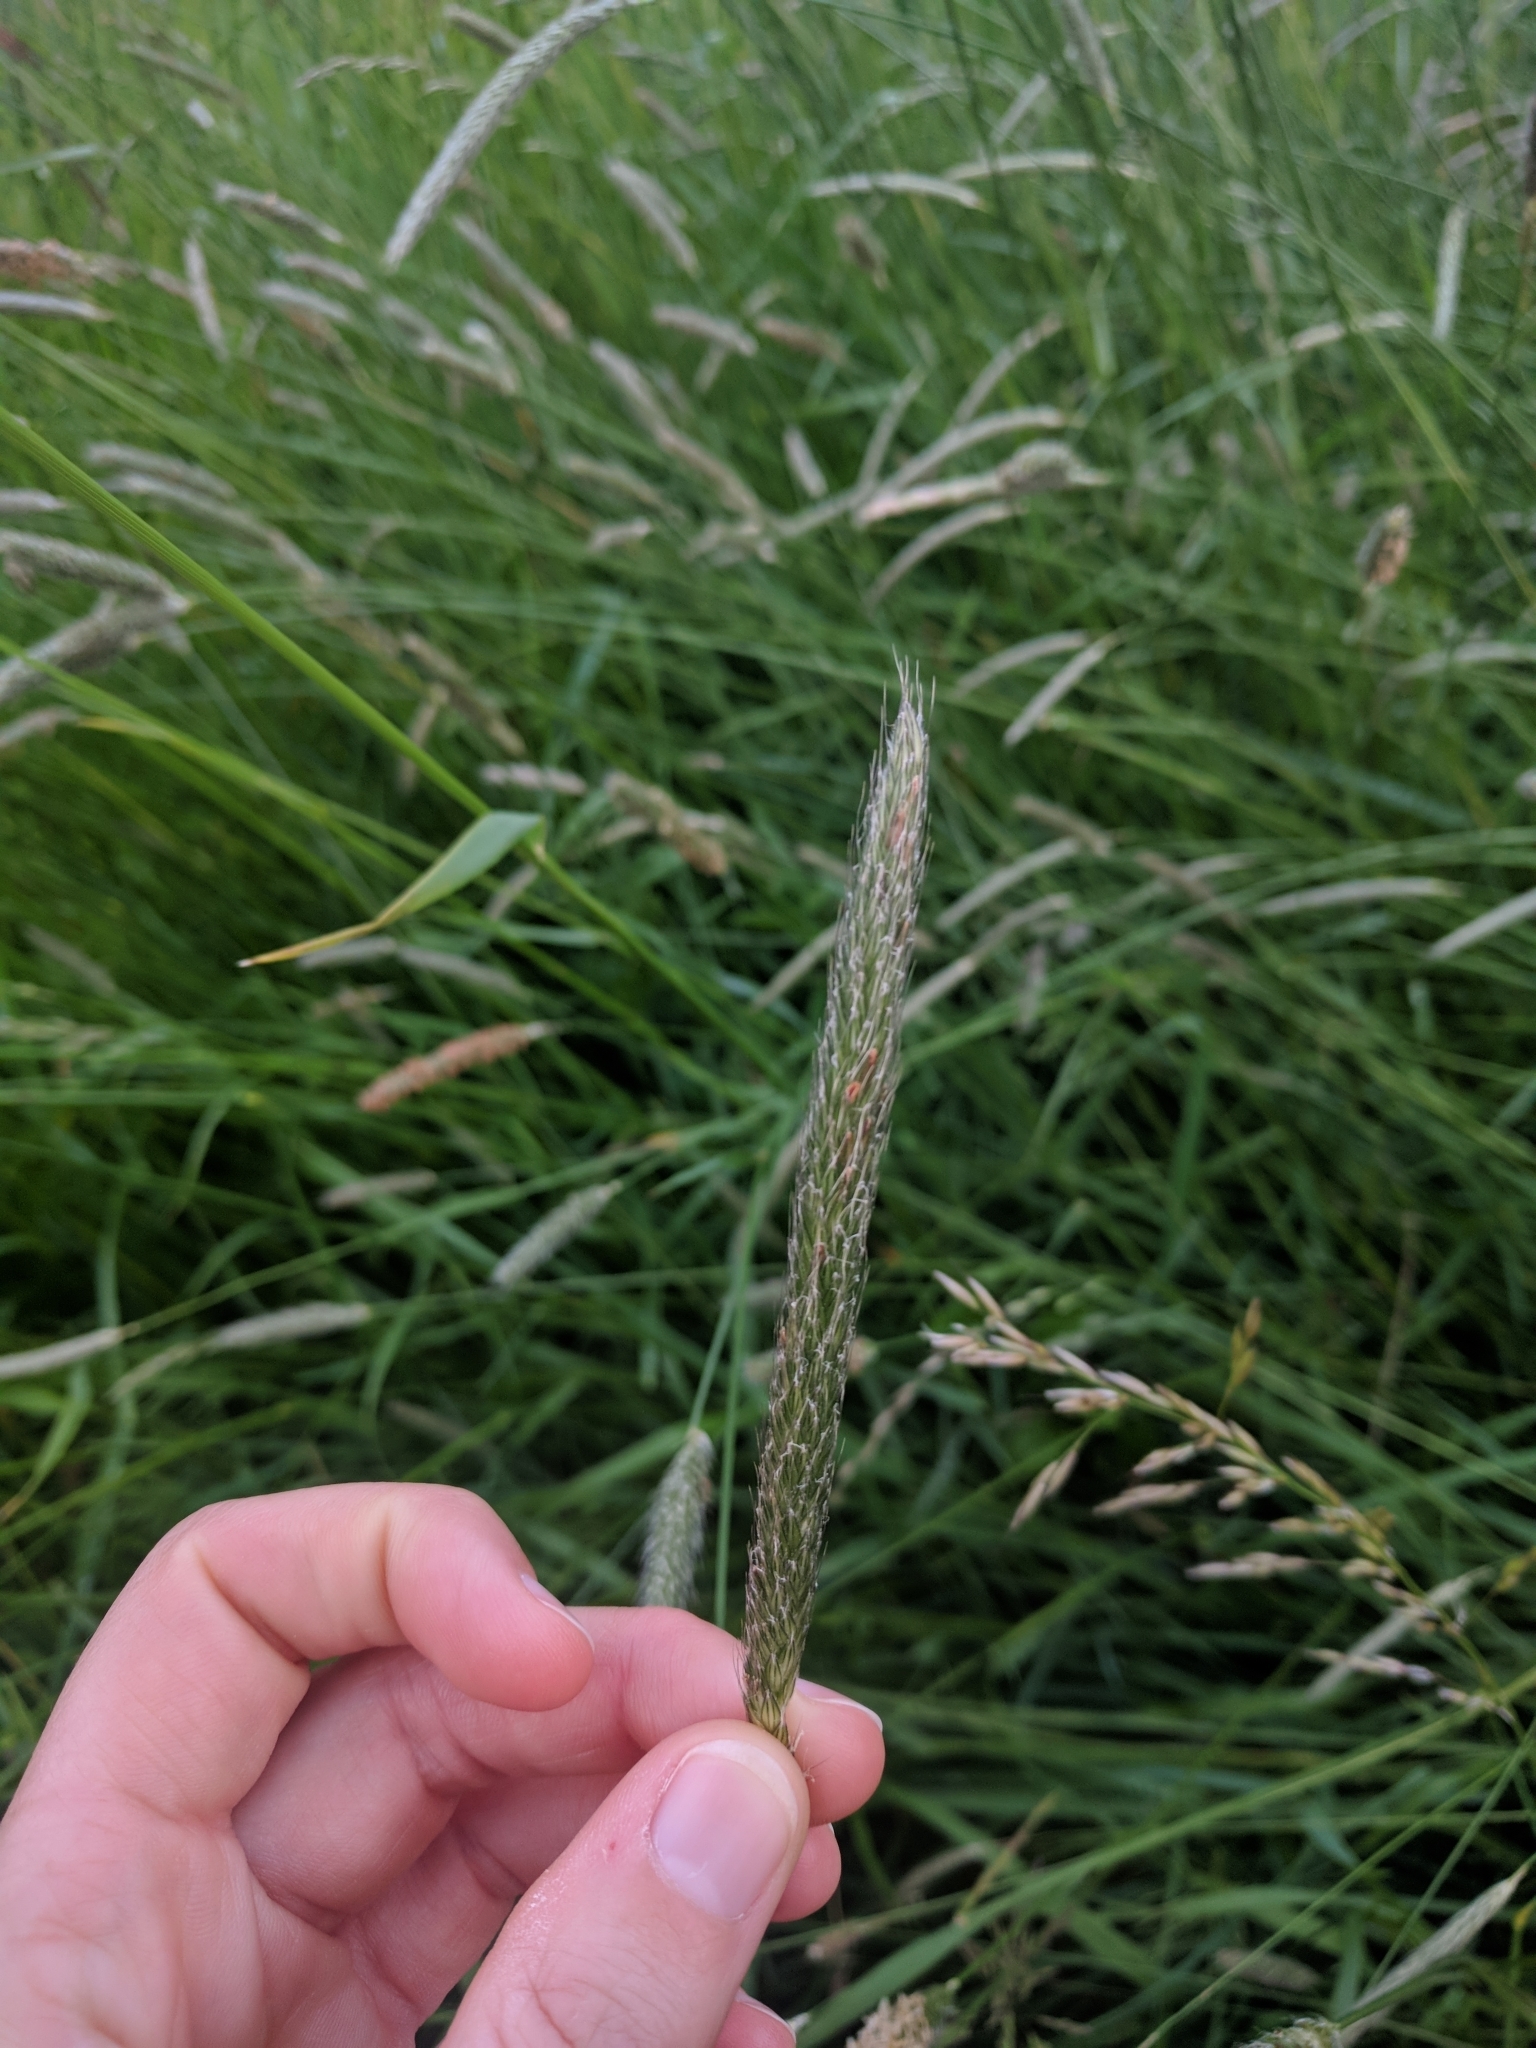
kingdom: Plantae
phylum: Tracheophyta
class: Liliopsida
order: Poales
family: Poaceae
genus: Alopecurus
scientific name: Alopecurus pratensis
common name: Meadow foxtail
